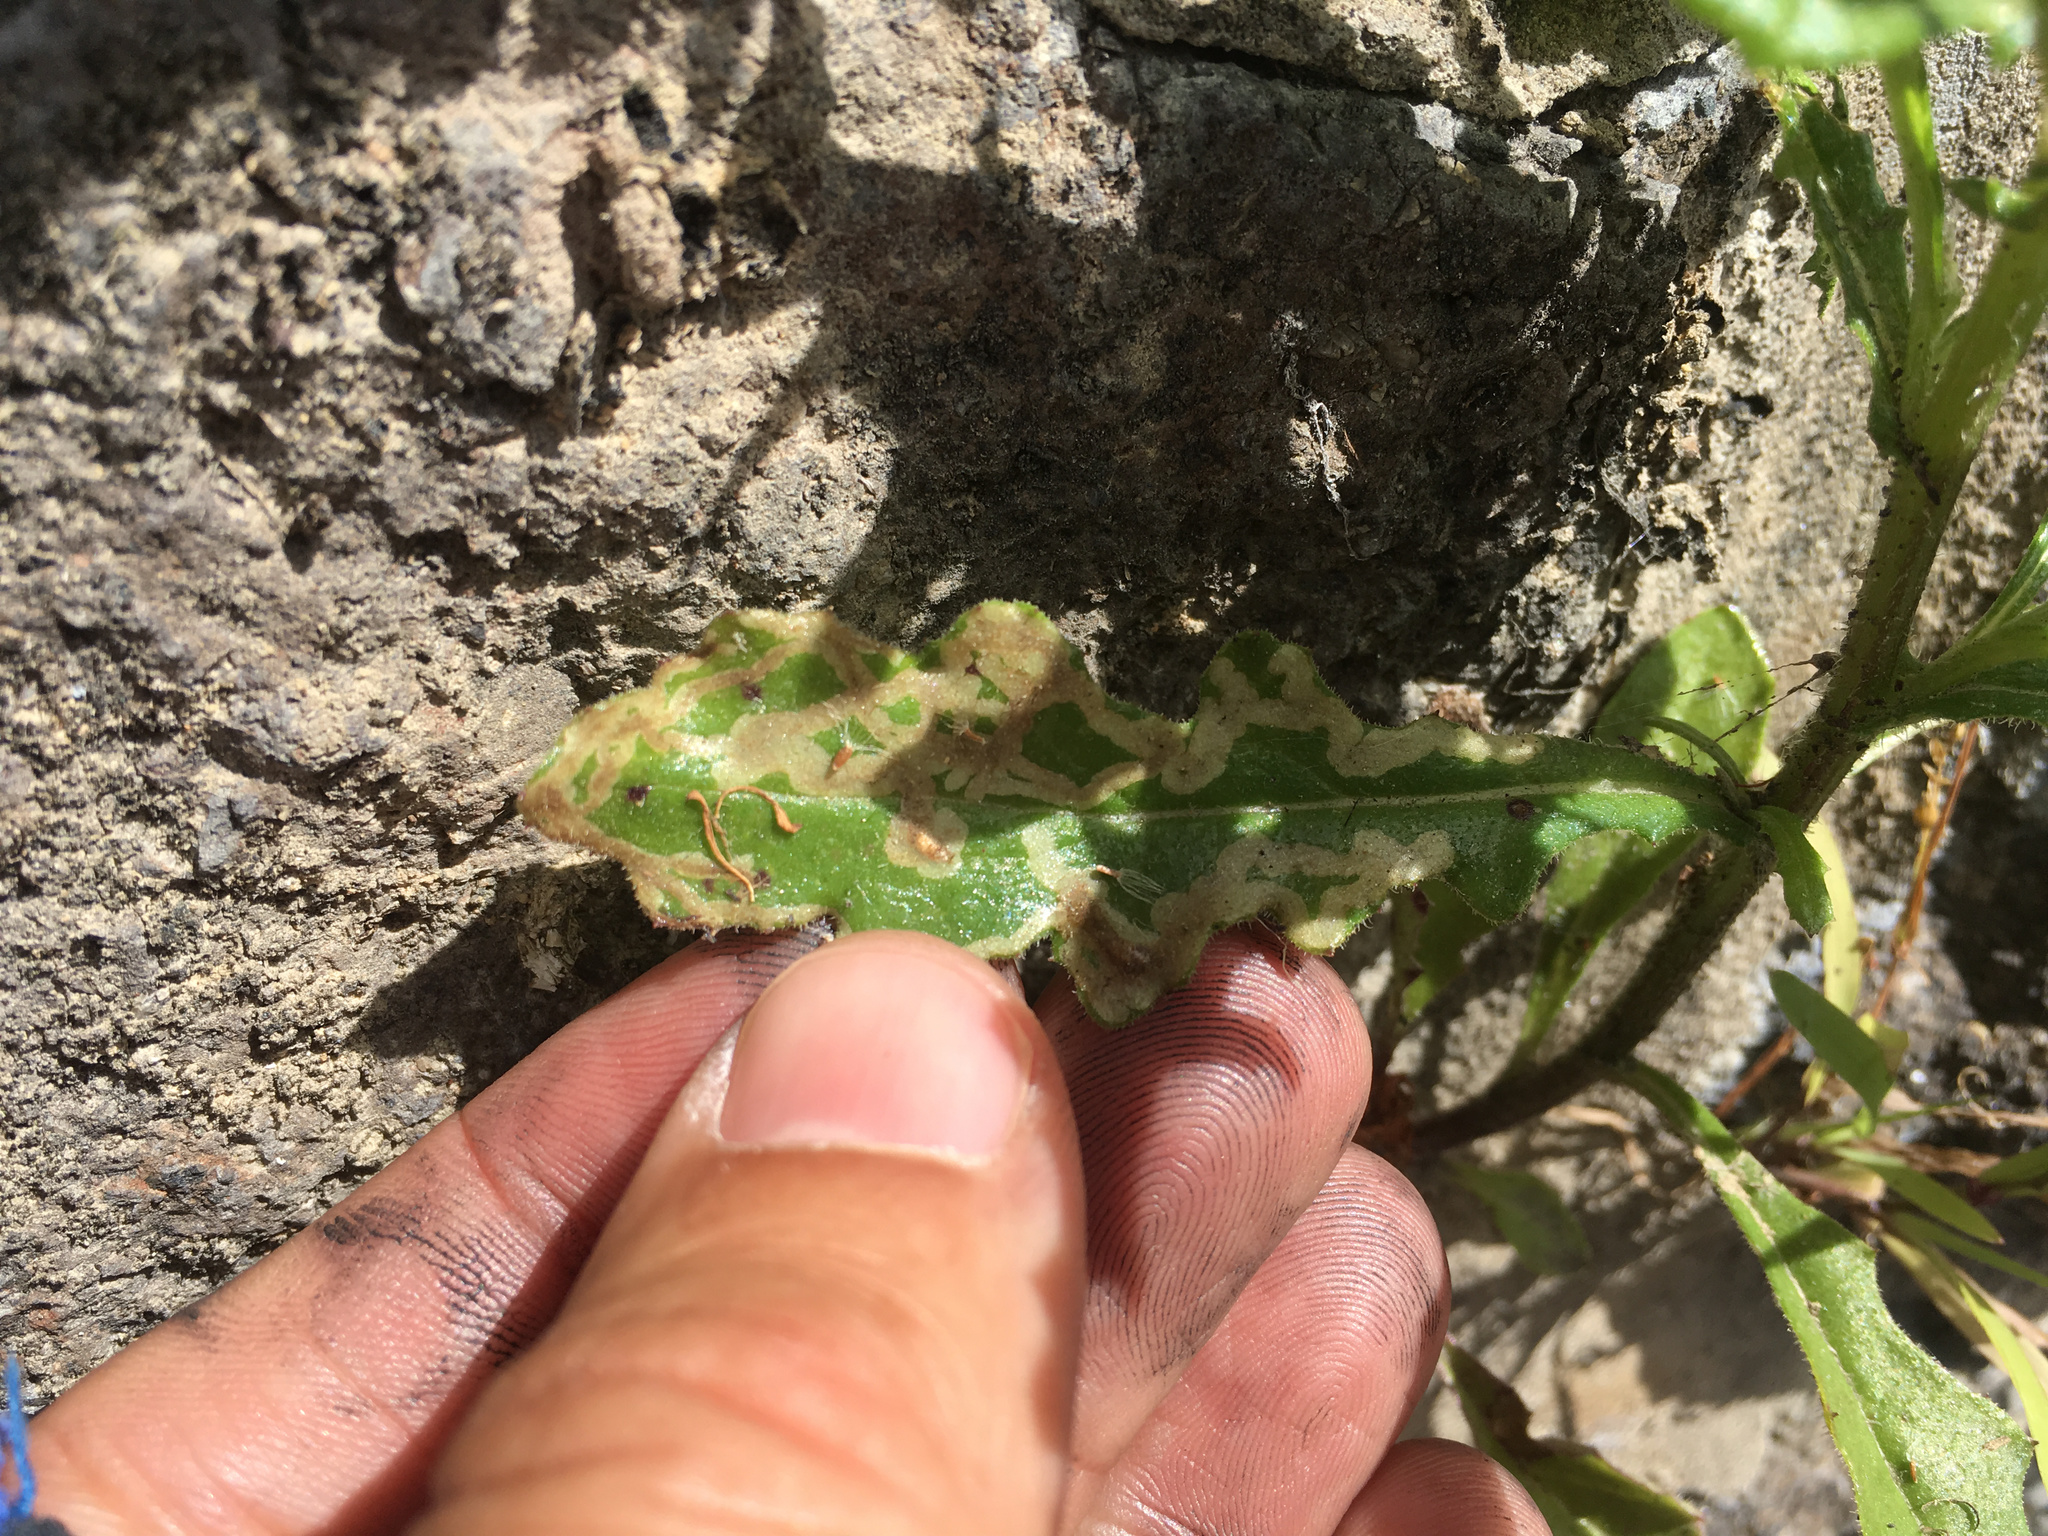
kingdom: Plantae
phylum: Tracheophyta
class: Magnoliopsida
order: Asterales
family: Asteraceae
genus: Senecio
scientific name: Senecio hispidulus
